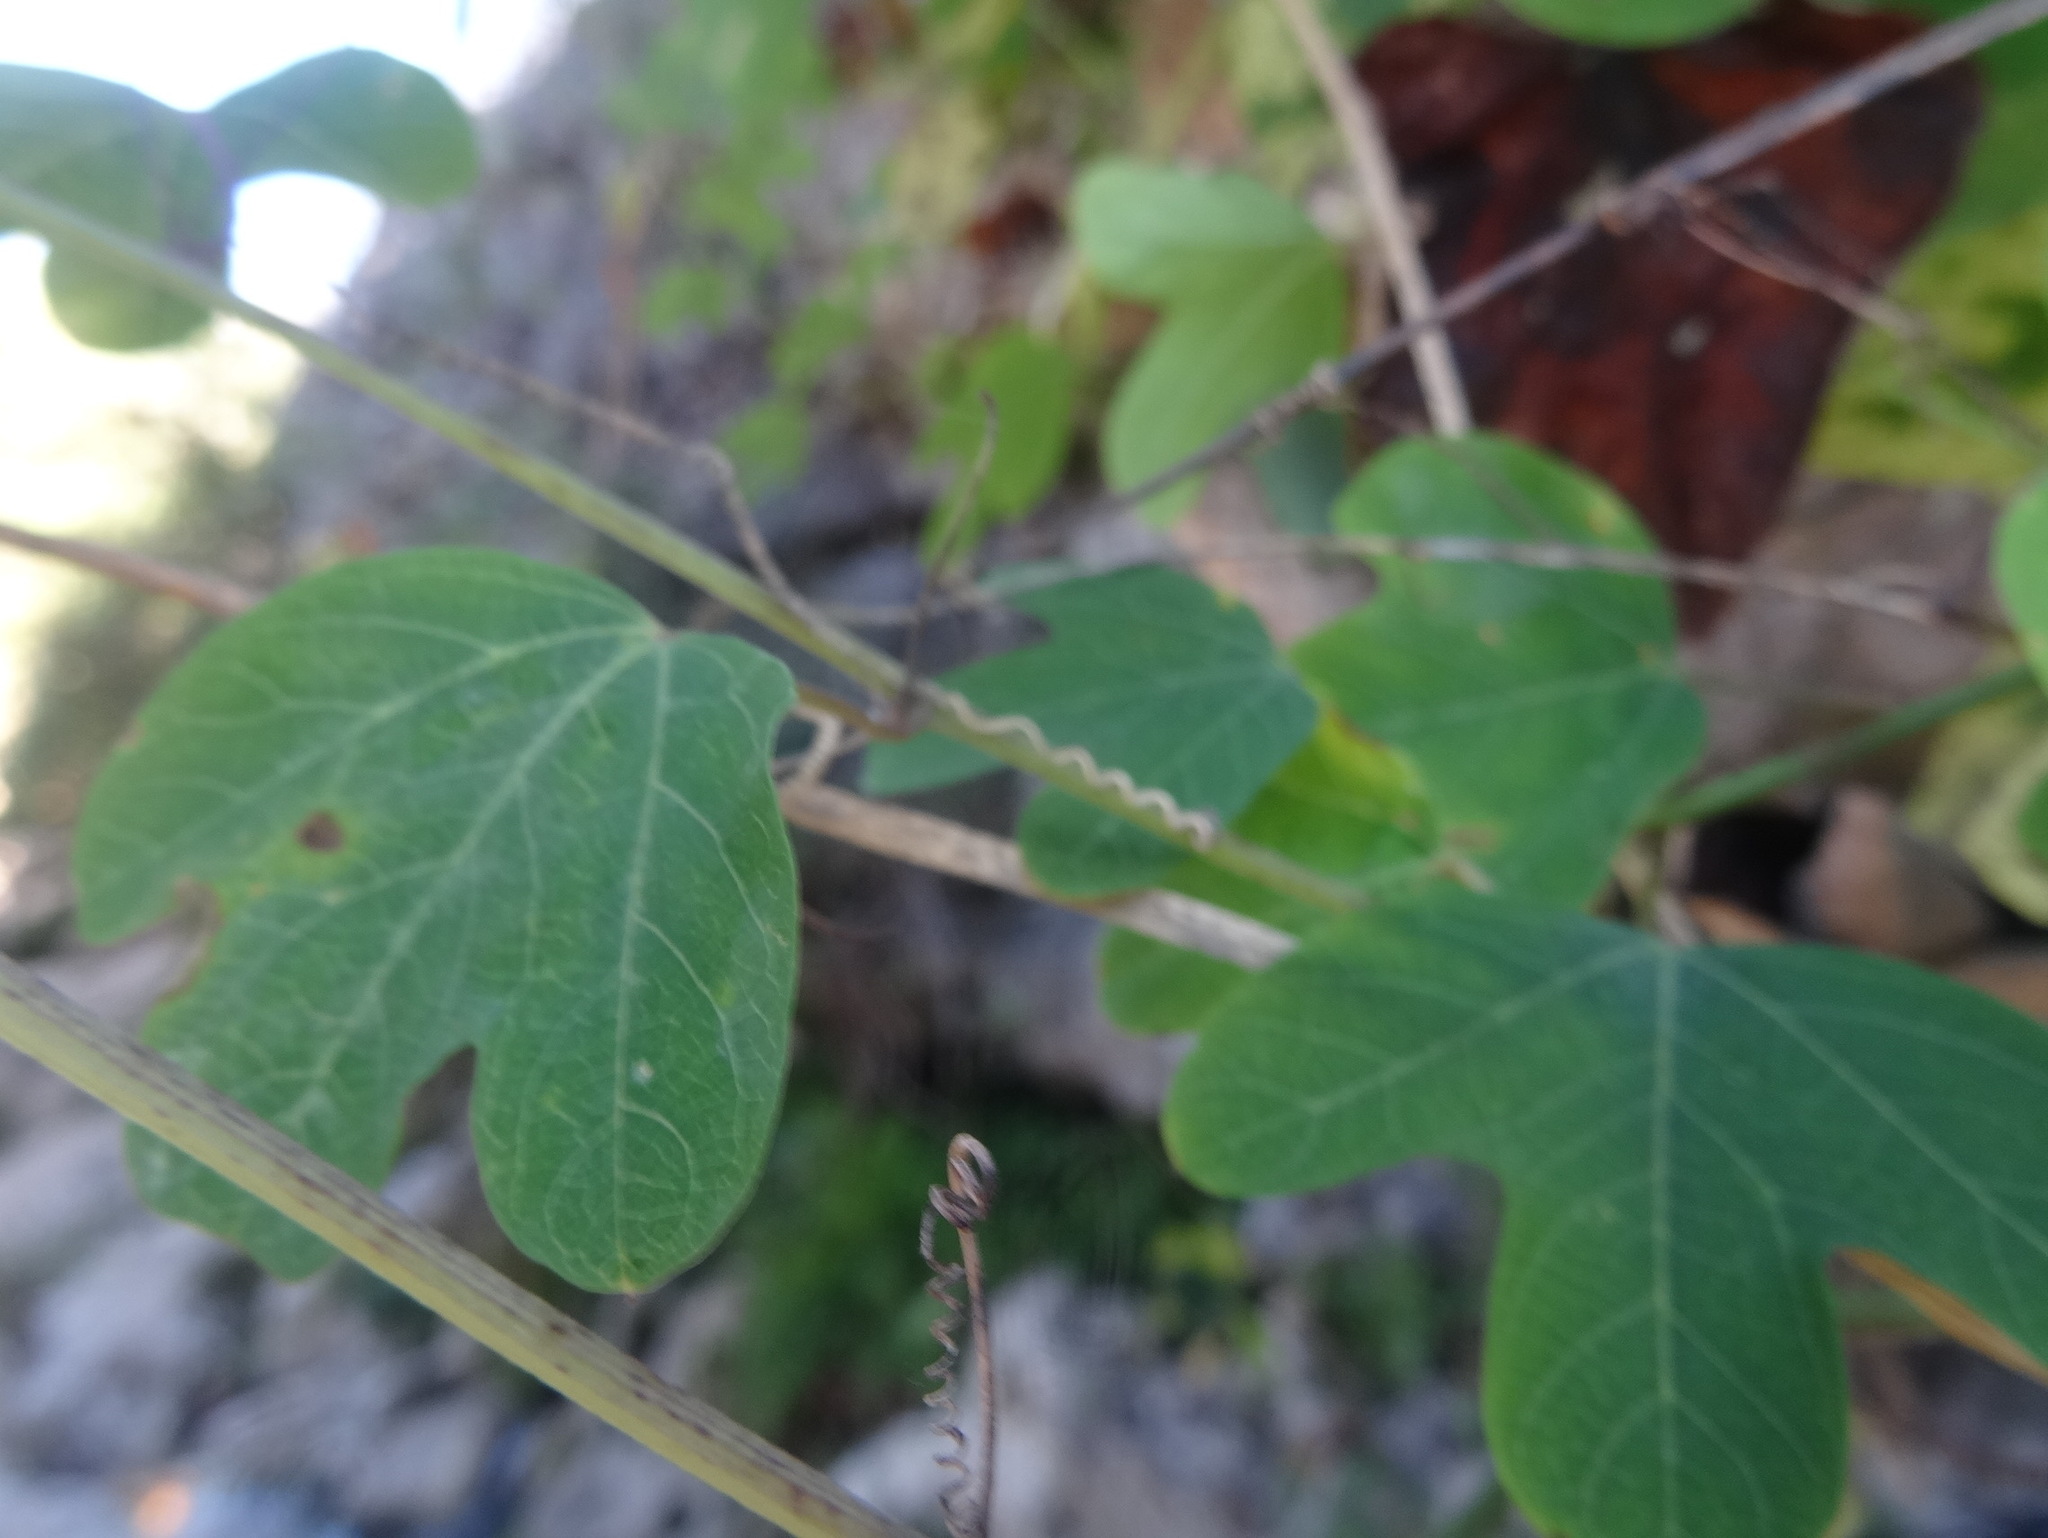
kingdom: Plantae
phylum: Tracheophyta
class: Magnoliopsida
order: Malpighiales
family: Passifloraceae
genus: Passiflora
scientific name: Passiflora affinis
